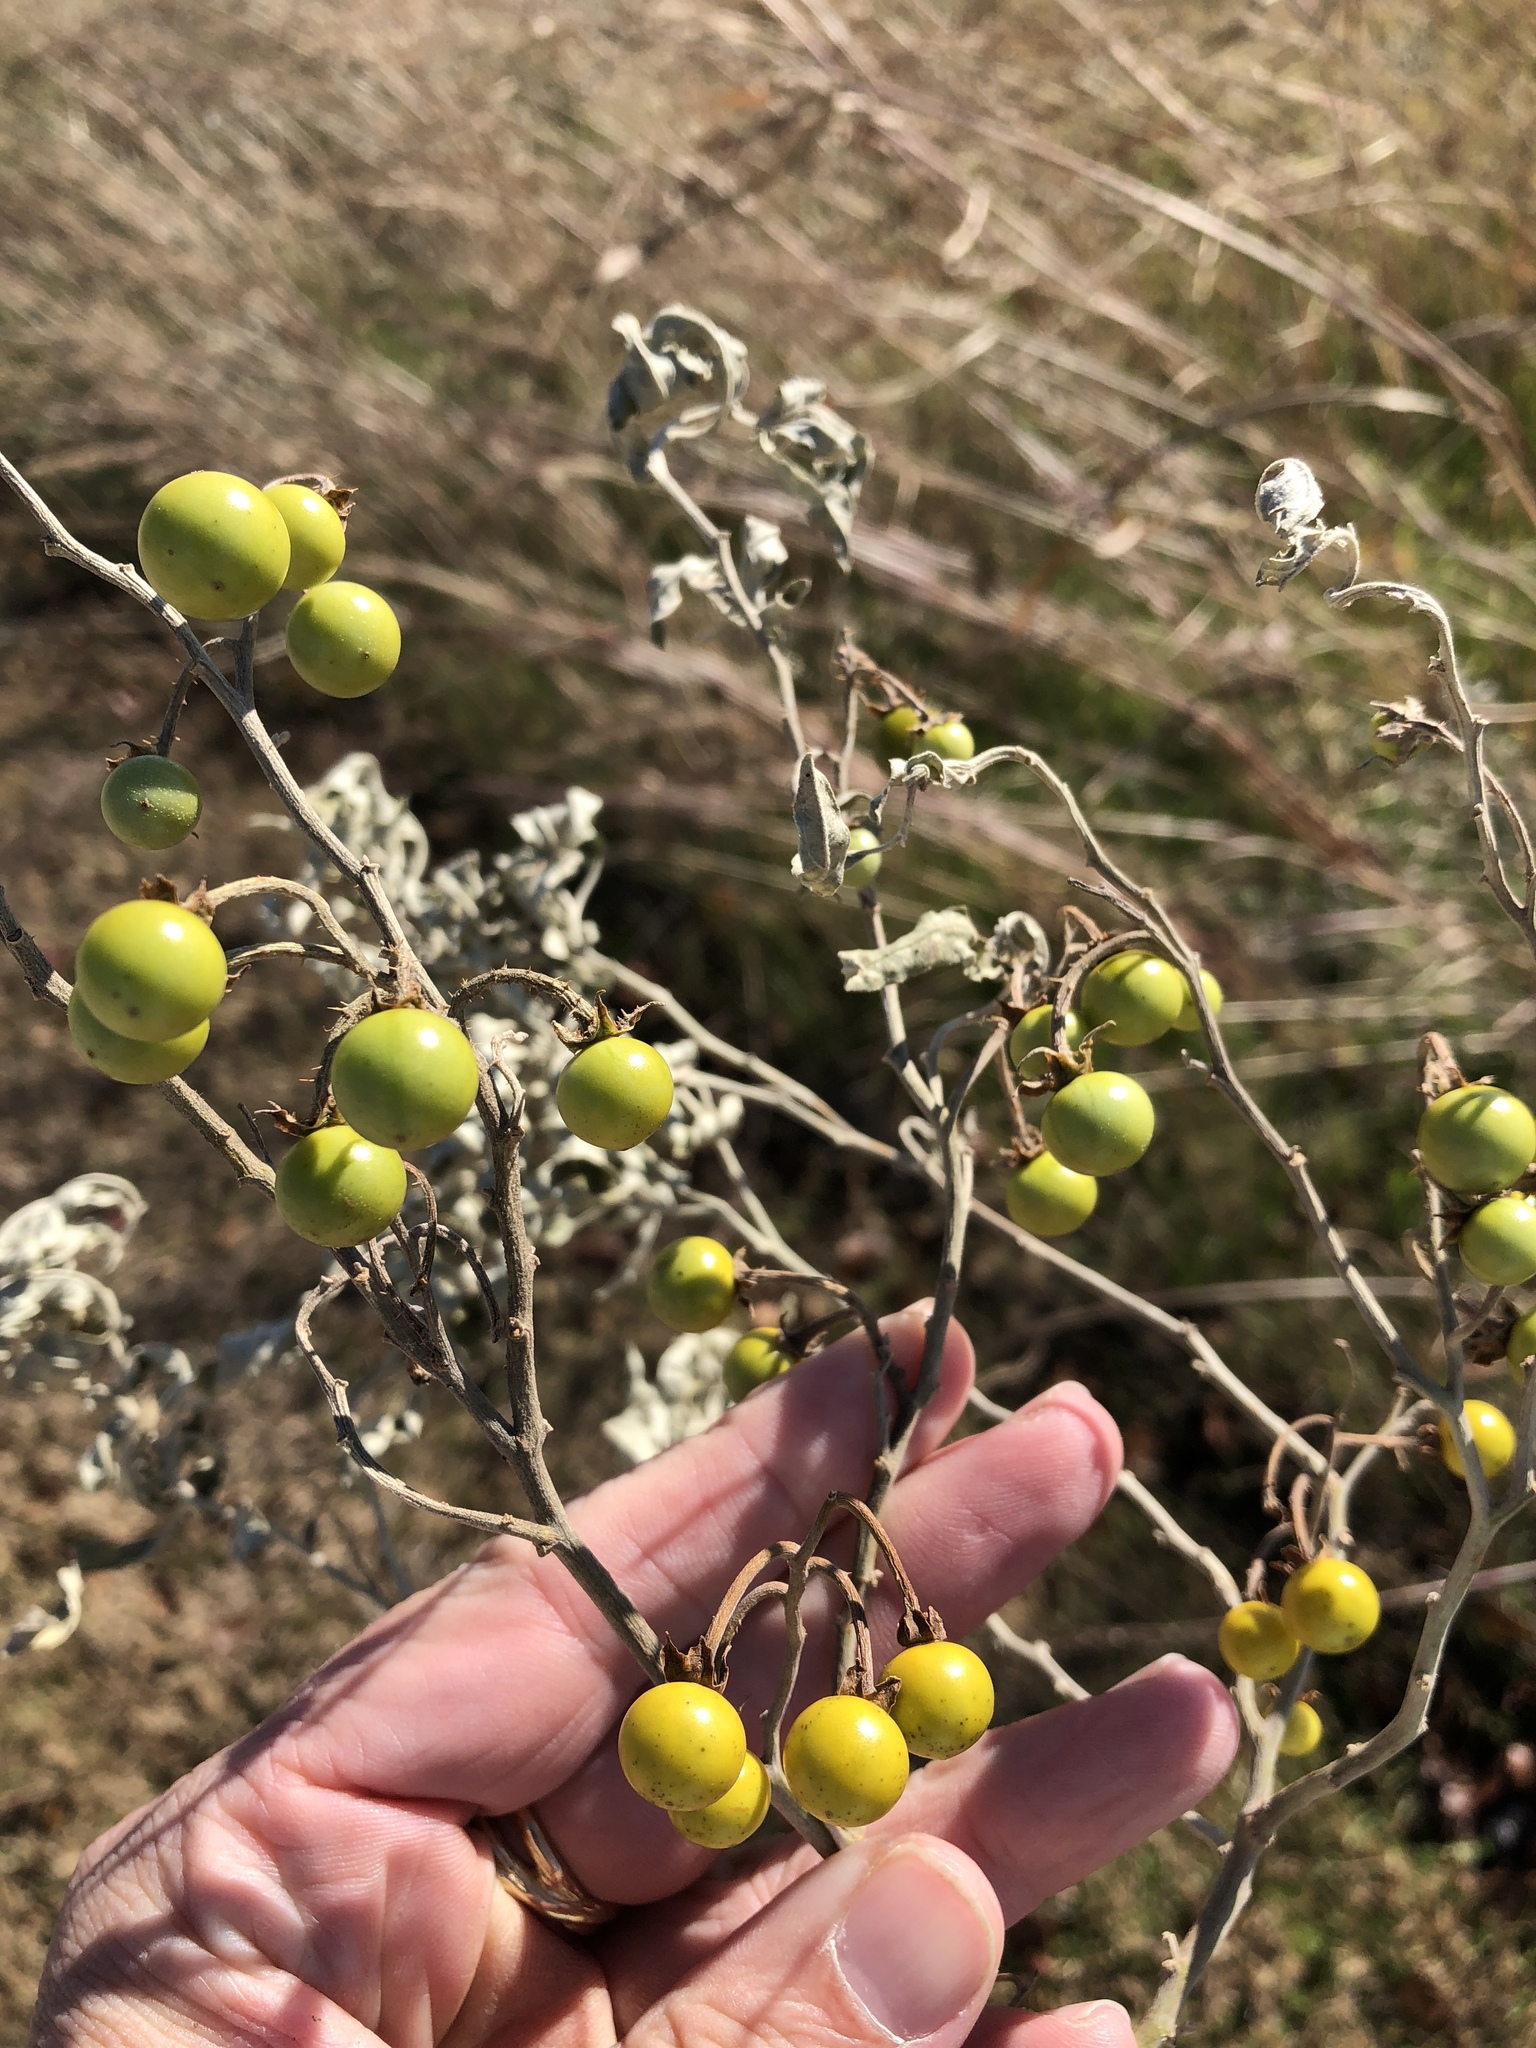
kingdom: Plantae
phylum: Tracheophyta
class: Magnoliopsida
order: Solanales
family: Solanaceae
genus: Solanum
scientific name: Solanum elaeagnifolium
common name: Silverleaf nightshade
